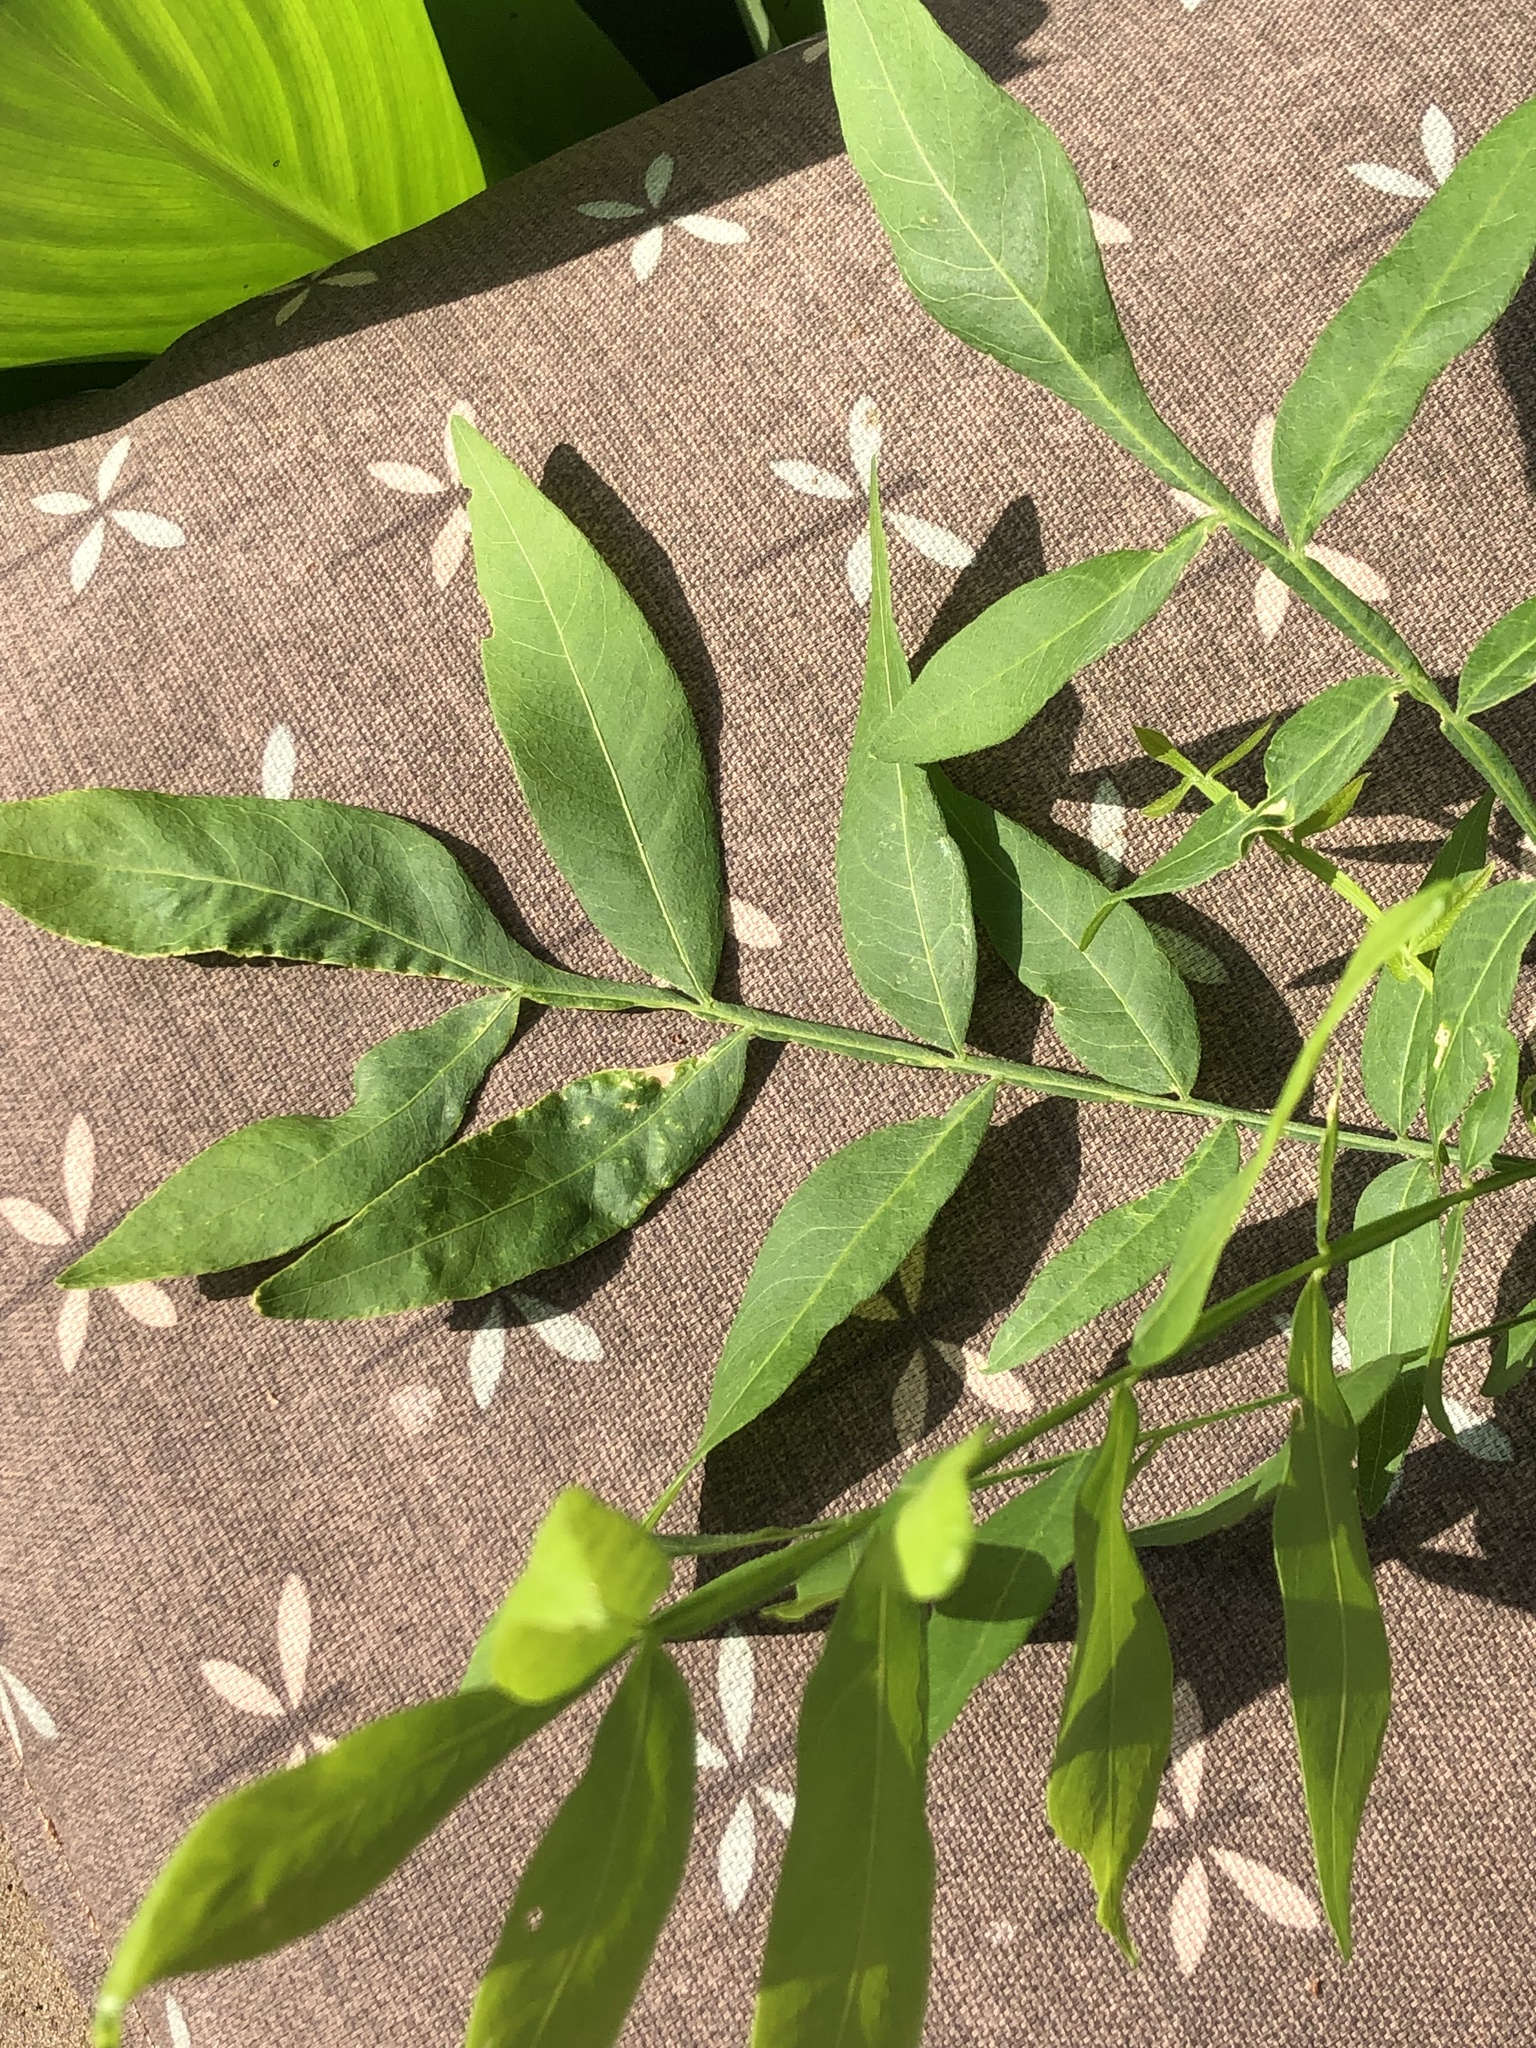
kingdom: Plantae
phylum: Tracheophyta
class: Magnoliopsida
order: Sapindales
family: Sapindaceae
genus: Sapindus
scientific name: Sapindus drummondii
